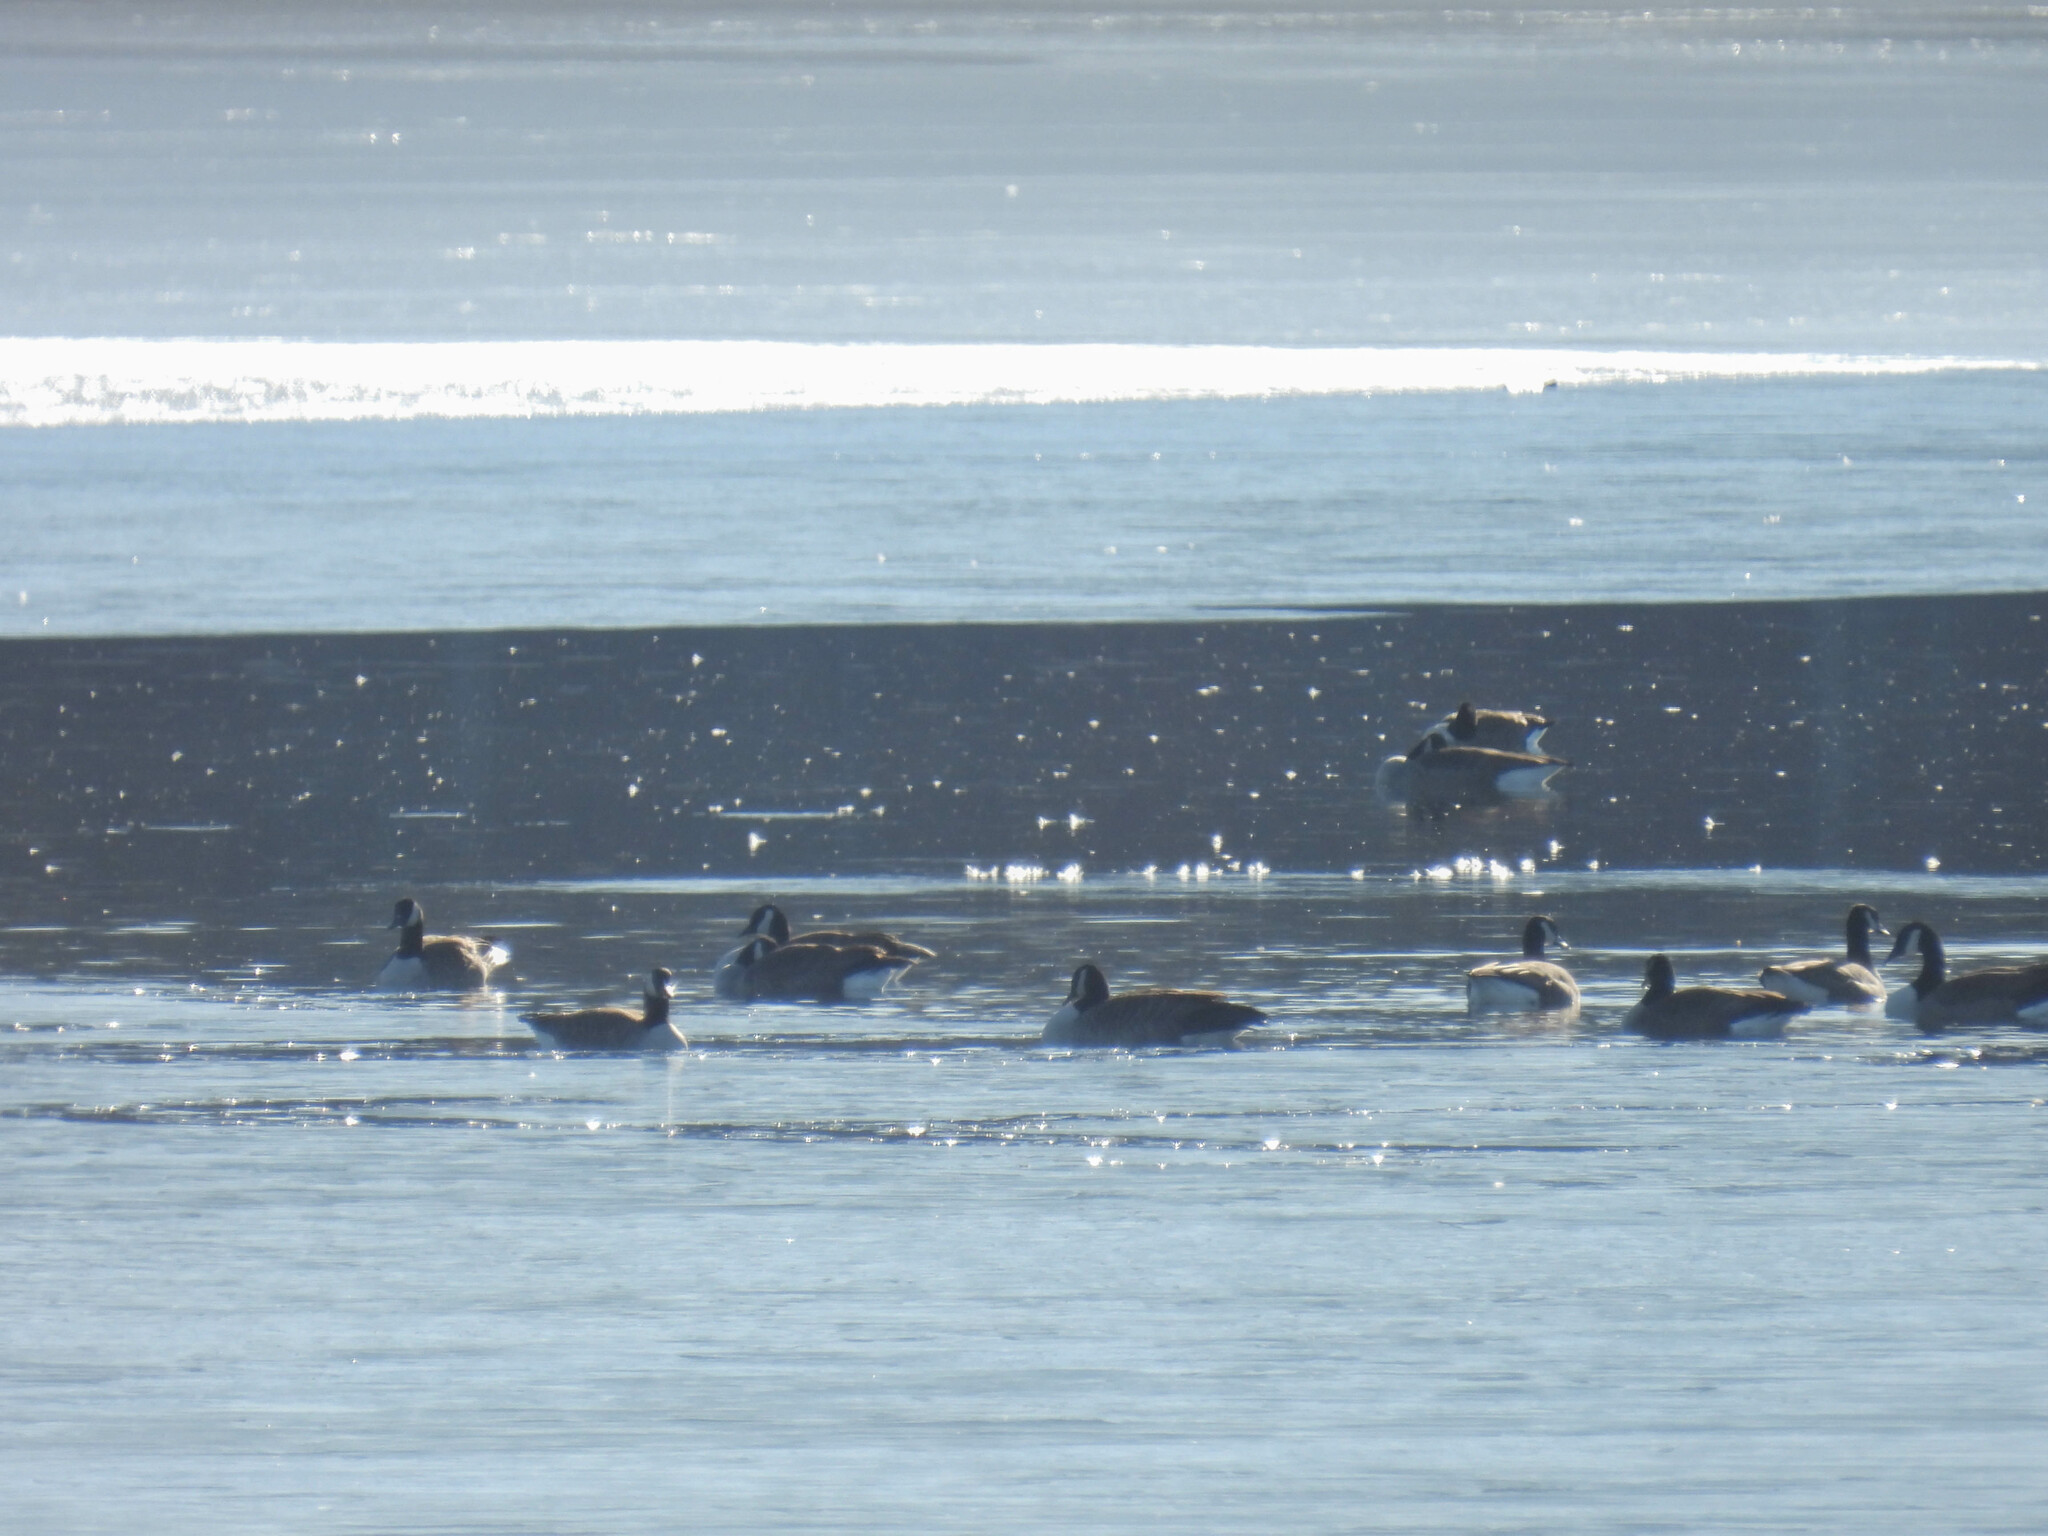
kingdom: Animalia
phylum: Chordata
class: Aves
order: Anseriformes
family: Anatidae
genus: Branta
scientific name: Branta canadensis
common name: Canada goose
